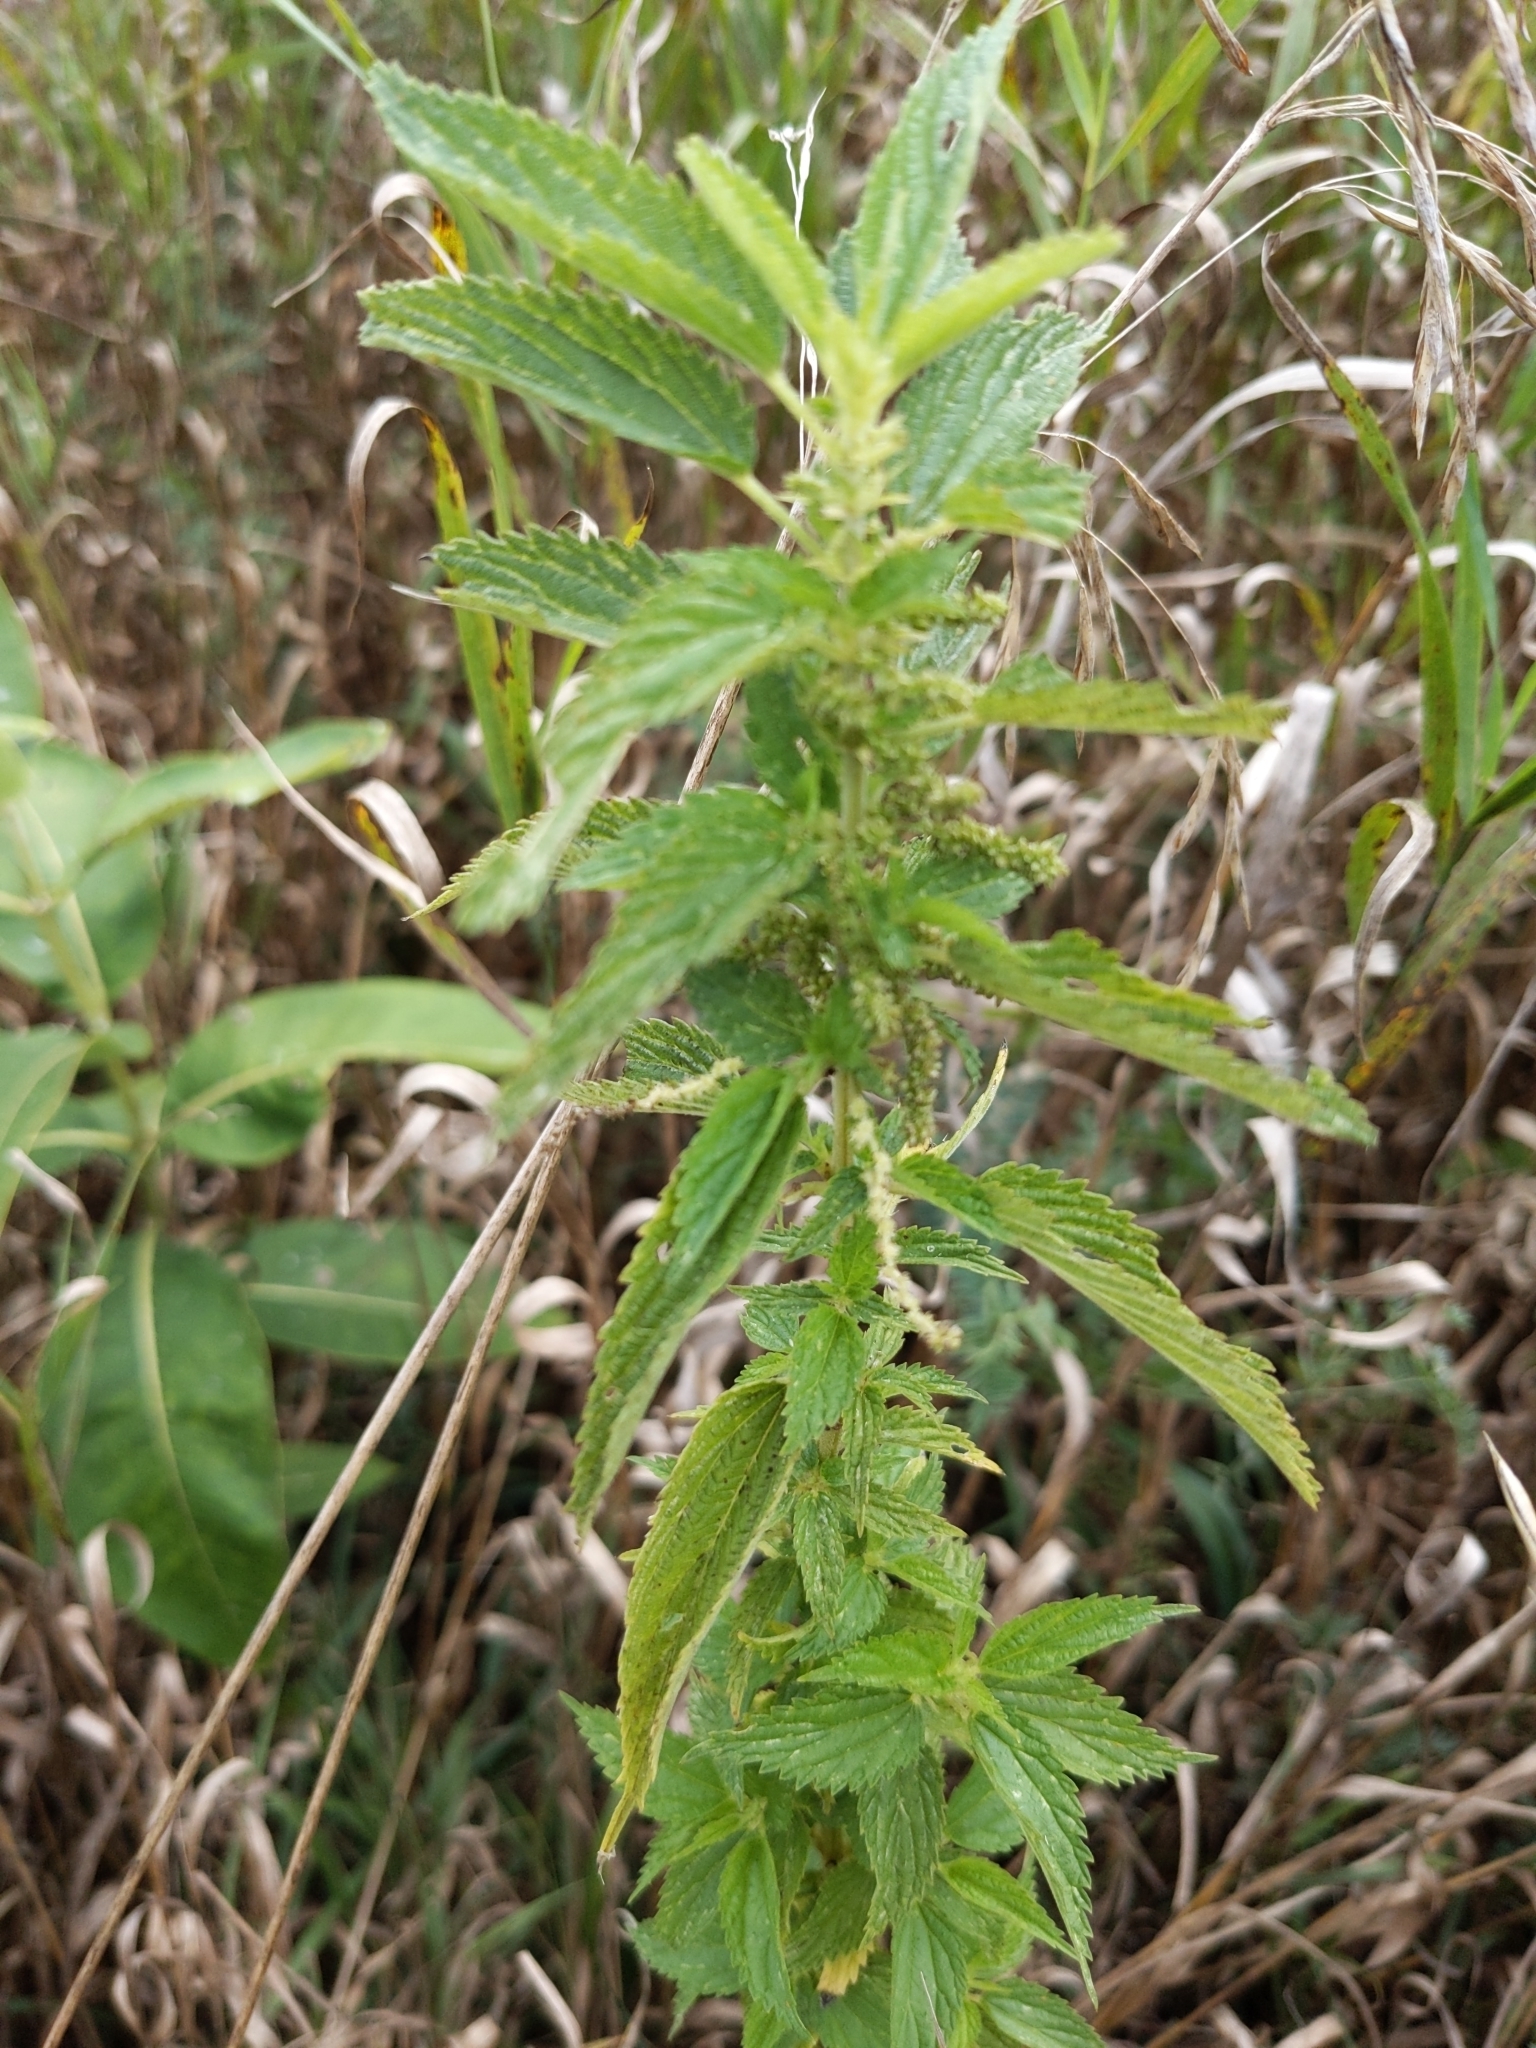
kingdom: Plantae
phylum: Tracheophyta
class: Magnoliopsida
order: Rosales
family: Urticaceae
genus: Urtica
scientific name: Urtica dioica
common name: Common nettle
